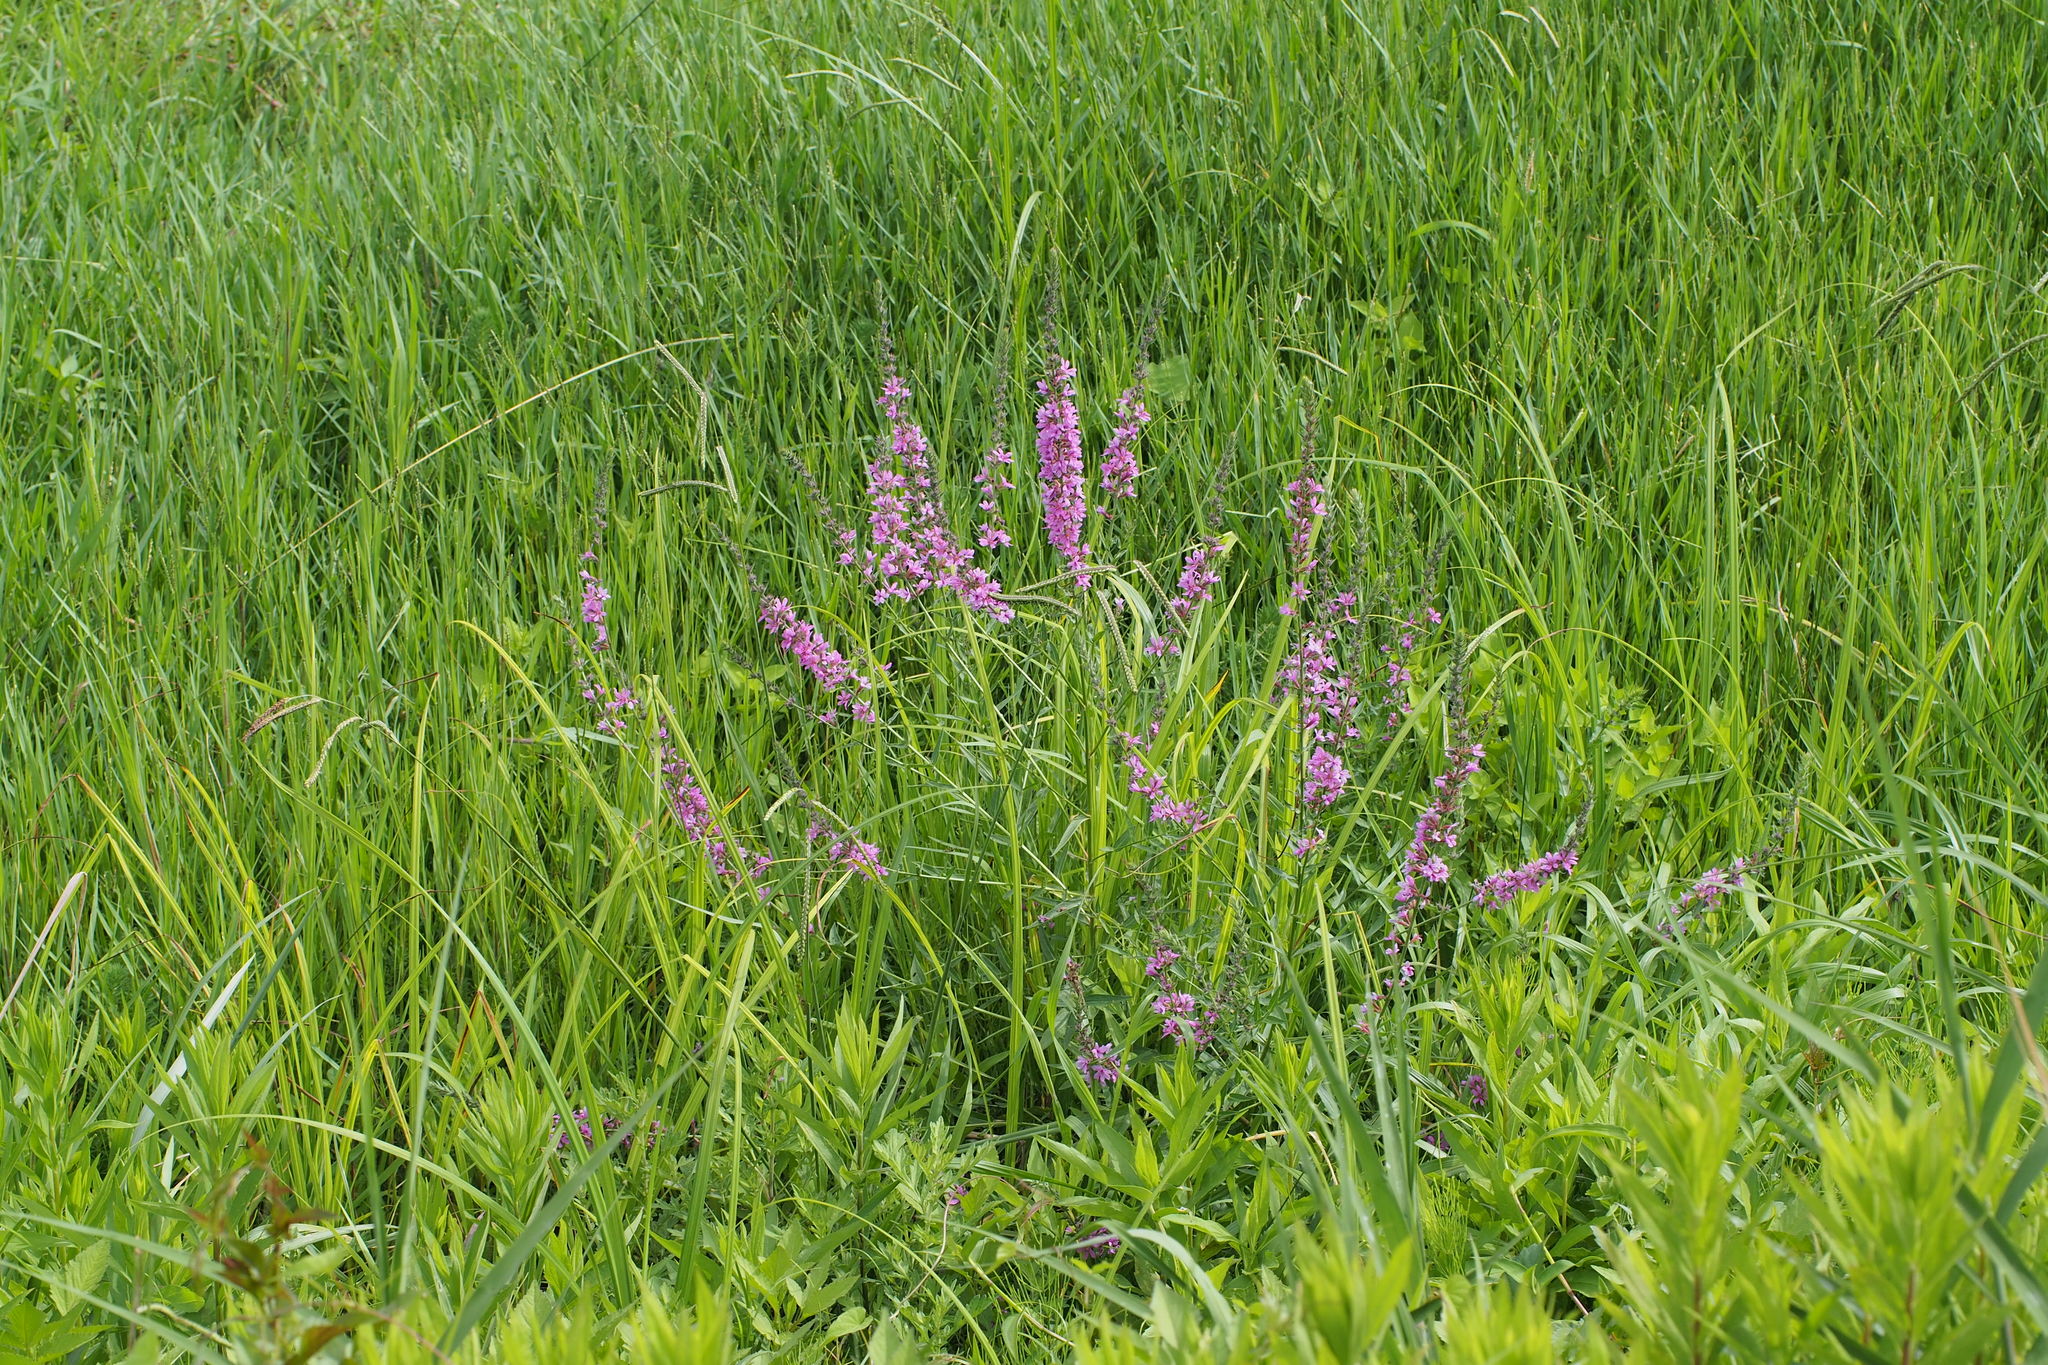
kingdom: Plantae
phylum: Tracheophyta
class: Magnoliopsida
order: Myrtales
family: Lythraceae
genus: Lythrum
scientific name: Lythrum salicaria
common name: Purple loosestrife
